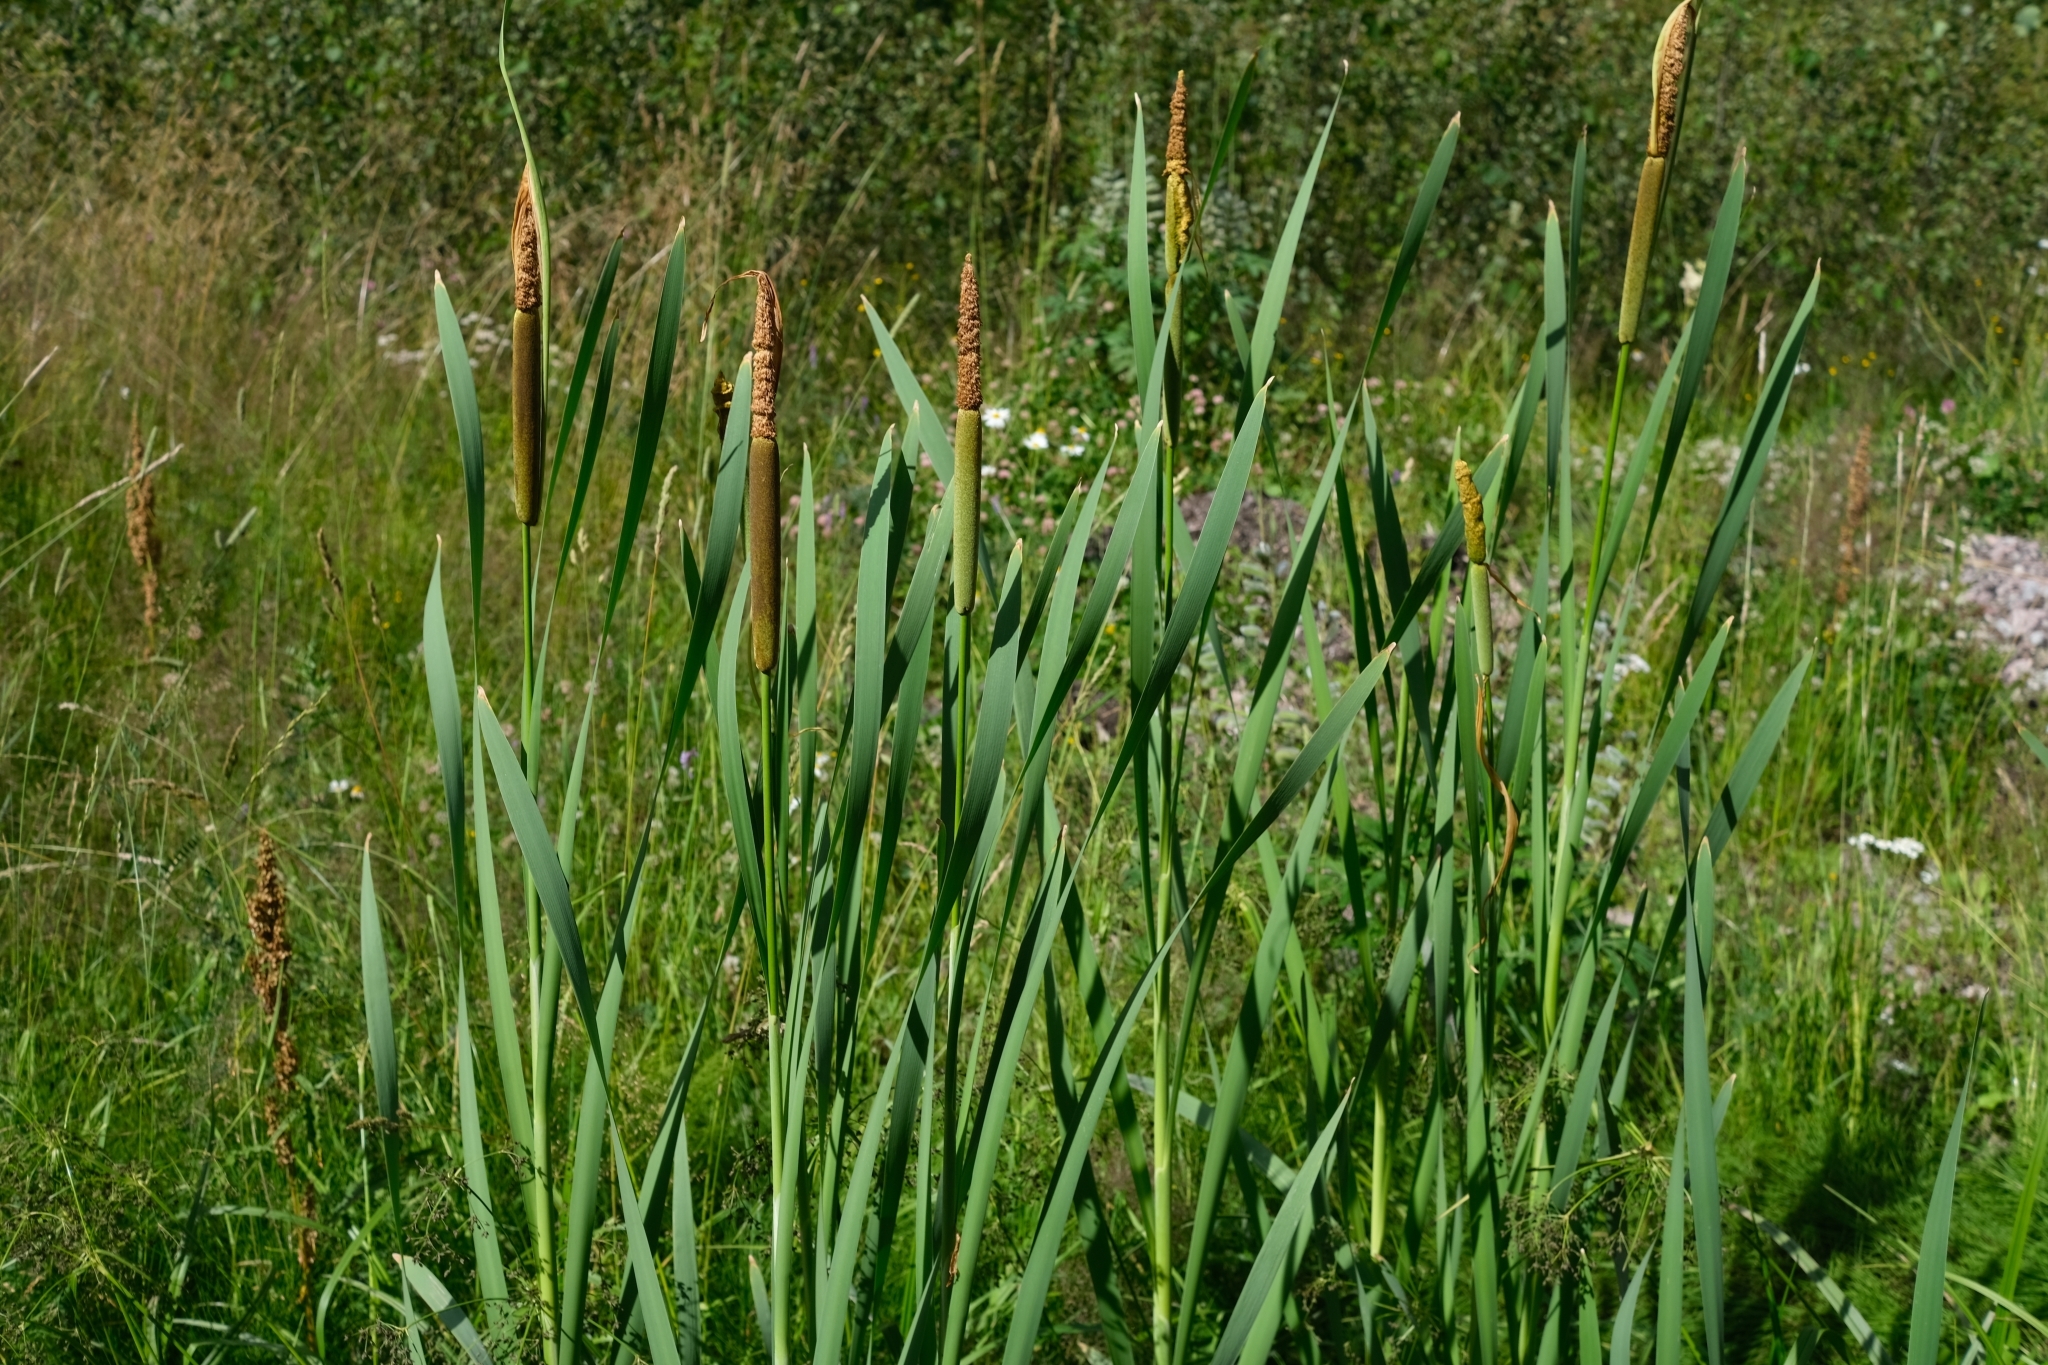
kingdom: Plantae
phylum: Tracheophyta
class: Liliopsida
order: Poales
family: Typhaceae
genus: Typha
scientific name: Typha latifolia
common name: Broadleaf cattail
